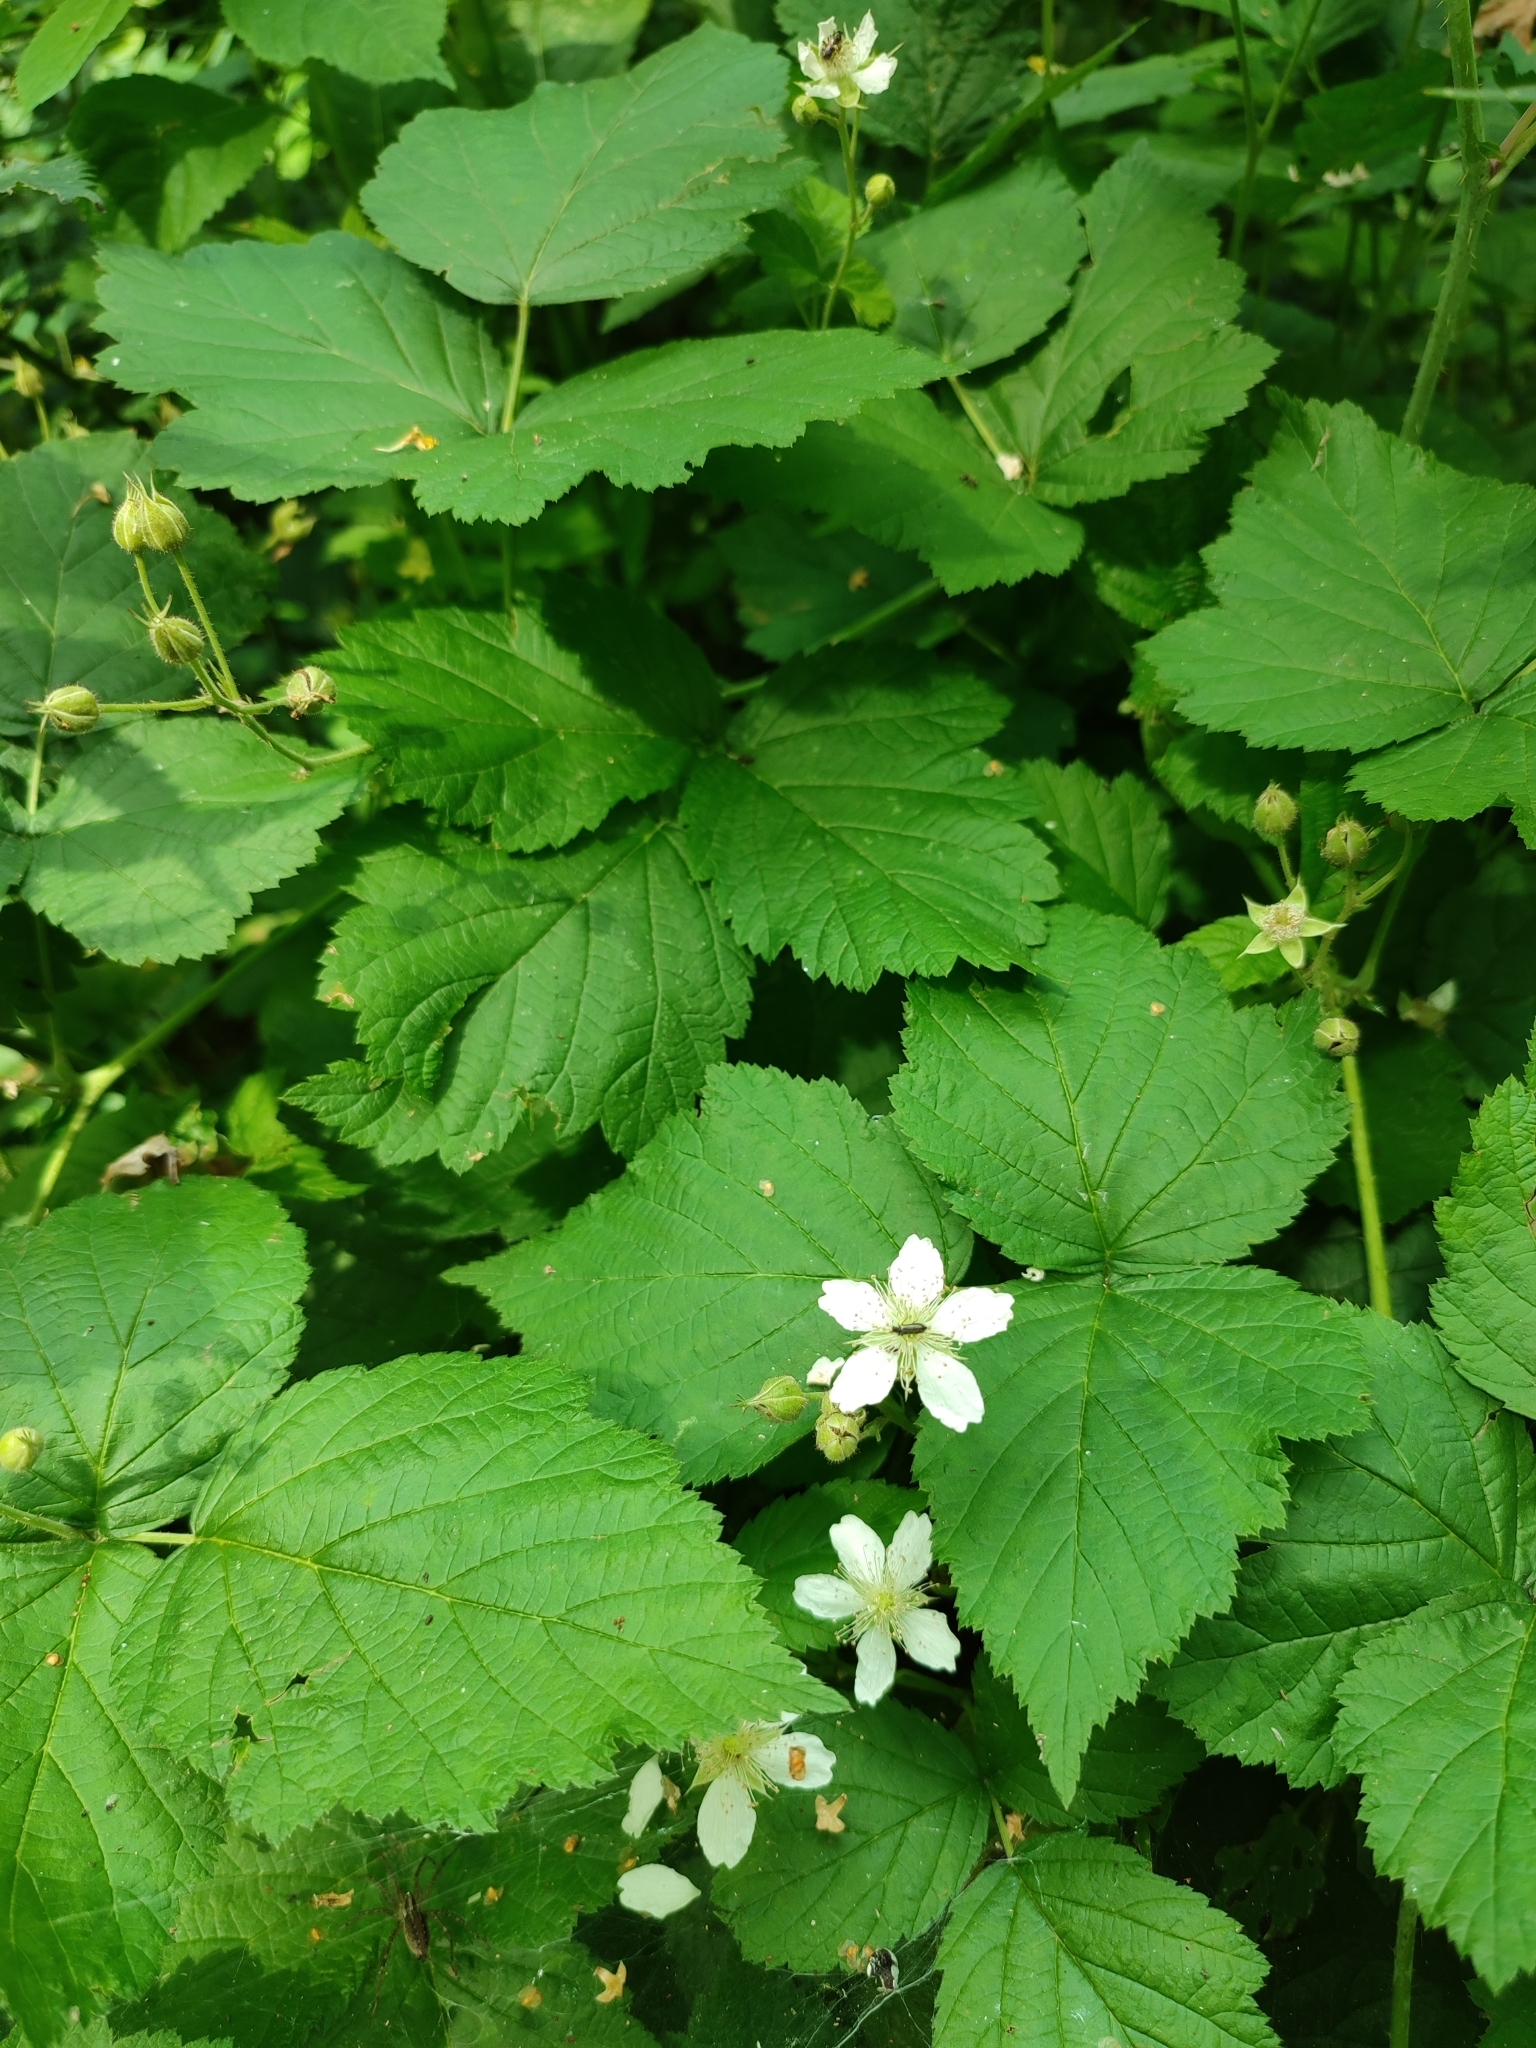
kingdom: Plantae
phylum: Tracheophyta
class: Magnoliopsida
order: Rosales
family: Rosaceae
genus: Rubus
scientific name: Rubus caesius
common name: Dewberry
